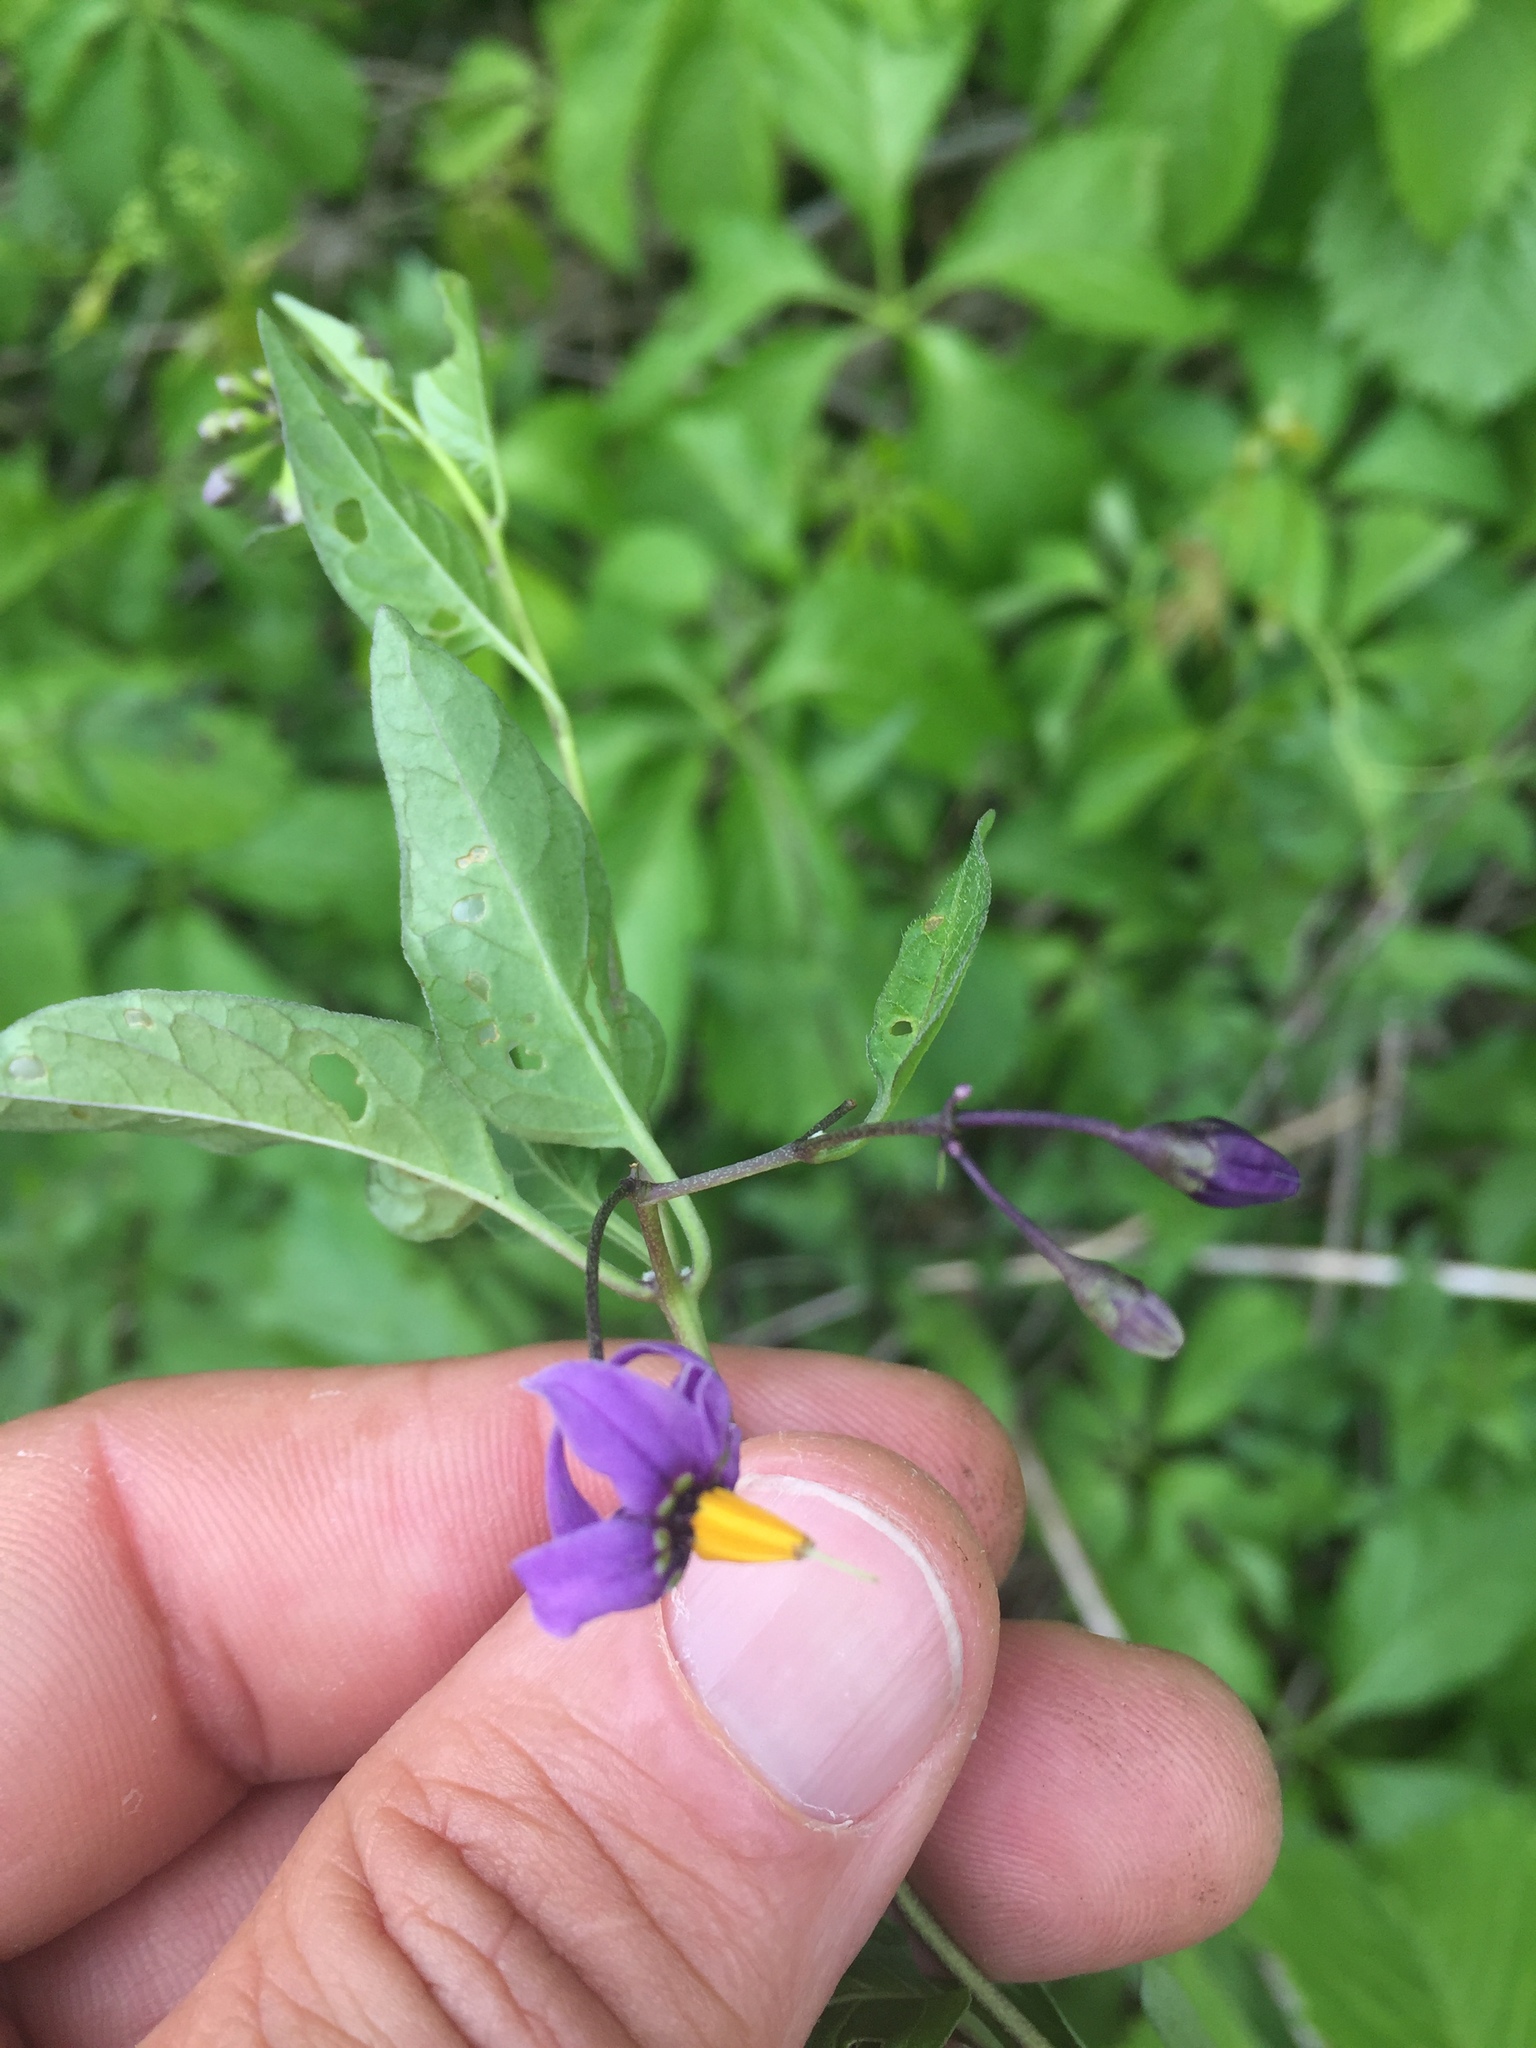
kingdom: Plantae
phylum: Tracheophyta
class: Magnoliopsida
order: Solanales
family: Solanaceae
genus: Solanum
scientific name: Solanum dulcamara
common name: Climbing nightshade
